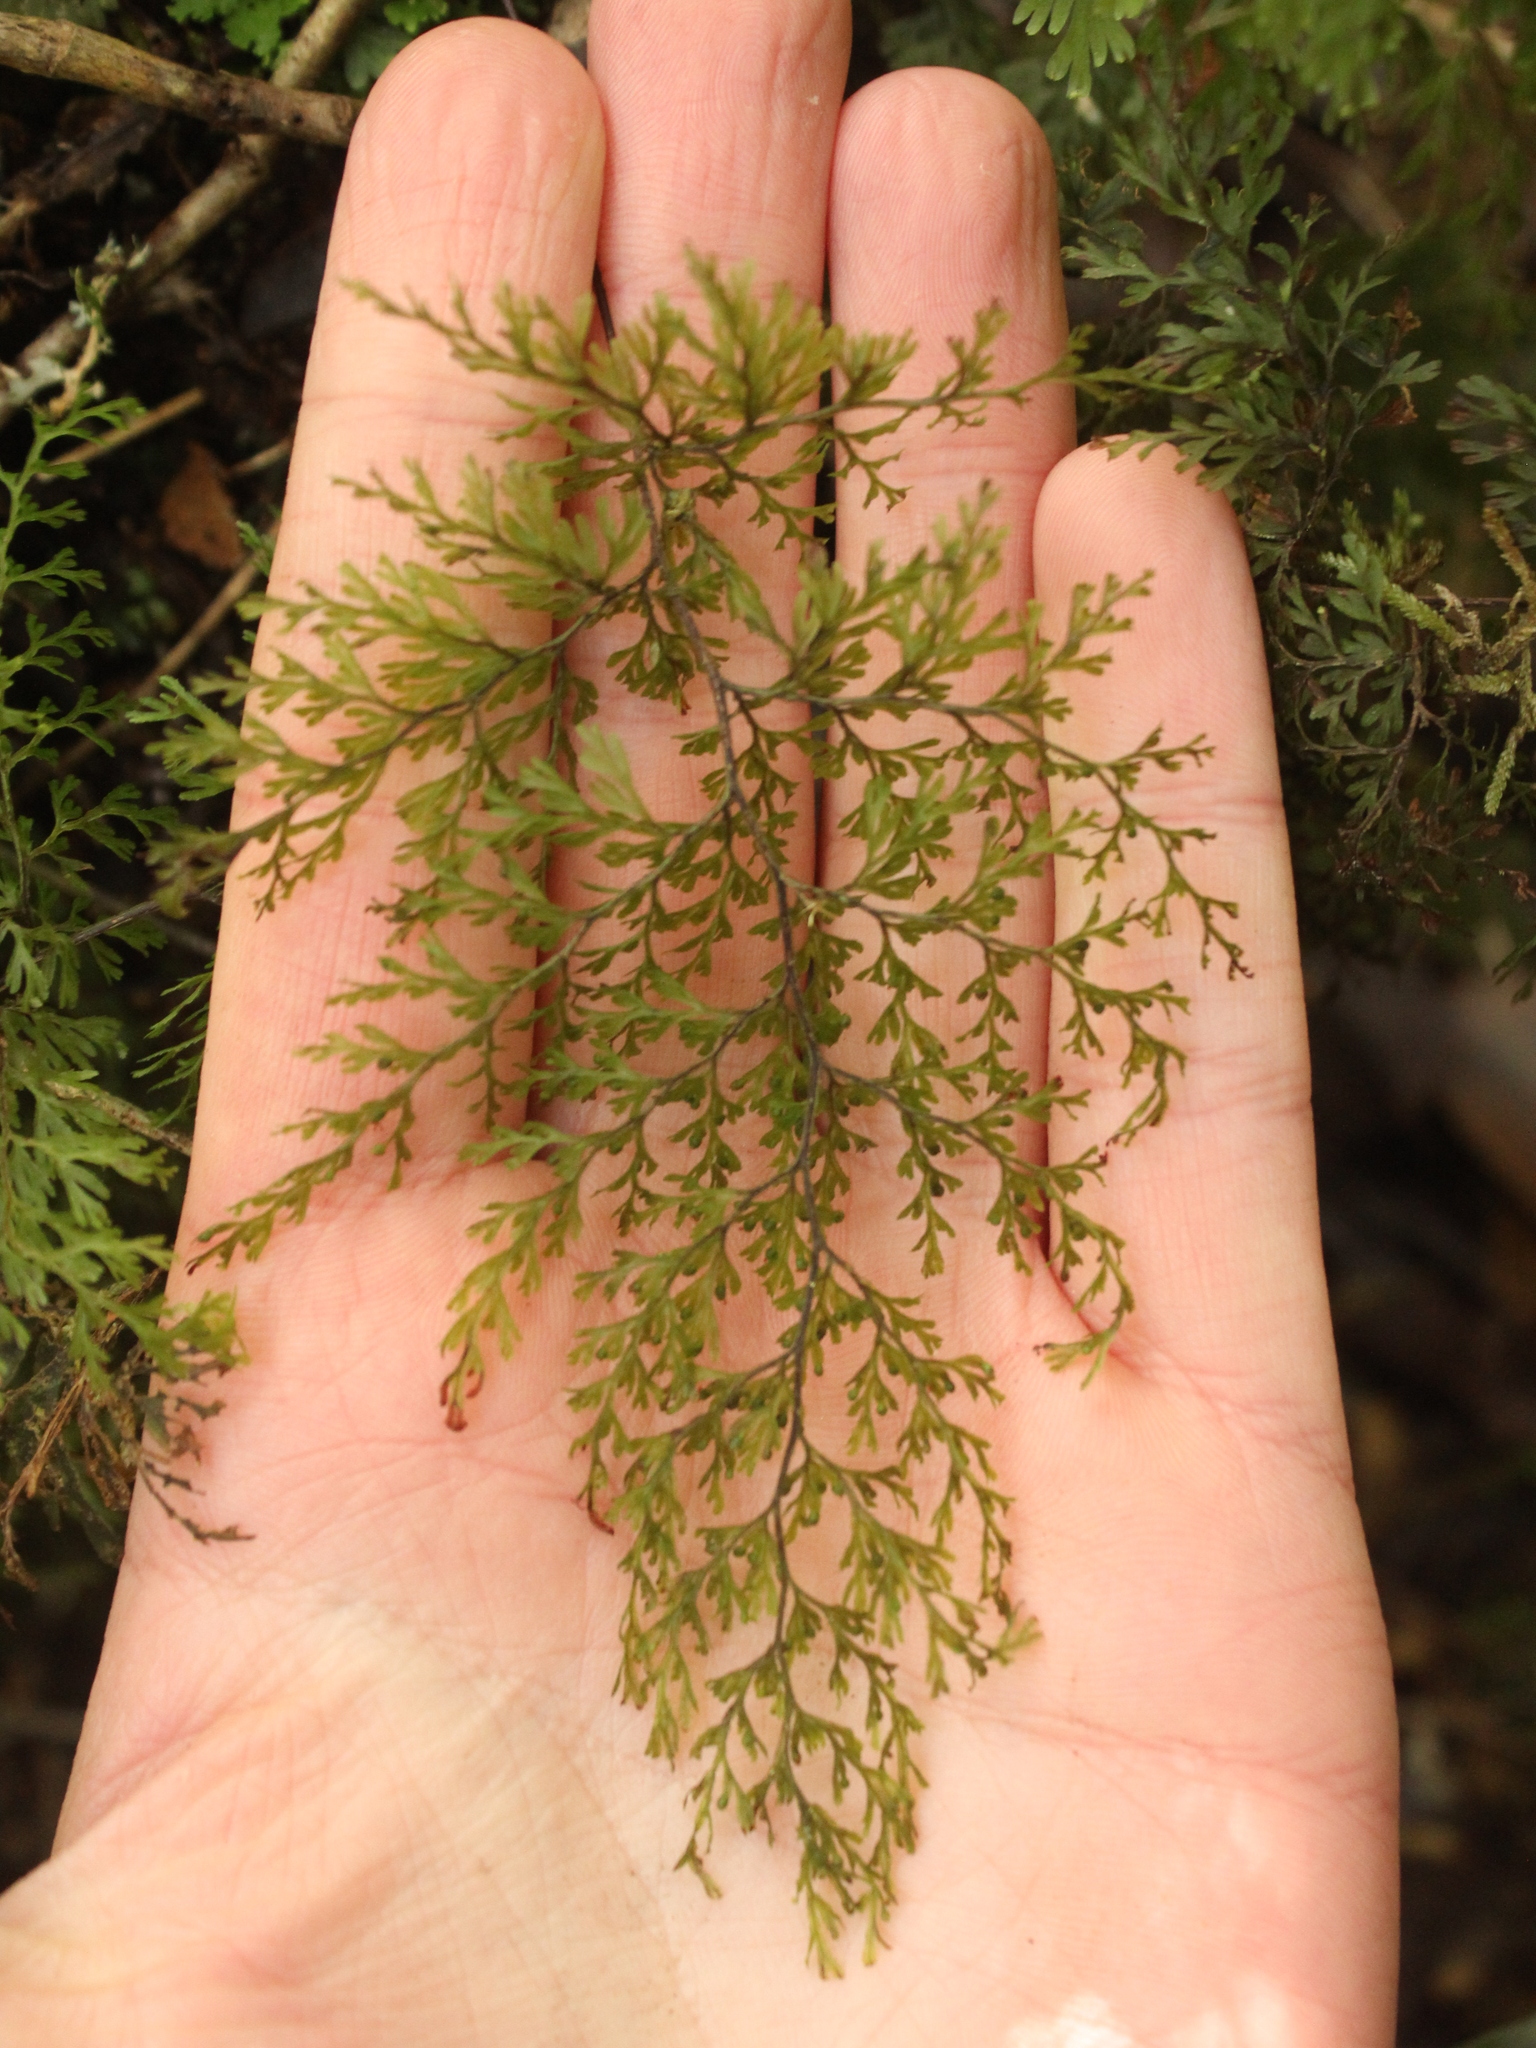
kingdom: Plantae
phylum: Tracheophyta
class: Polypodiopsida
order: Hymenophyllales
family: Hymenophyllaceae
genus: Hymenophyllum
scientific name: Hymenophyllum bivalve
